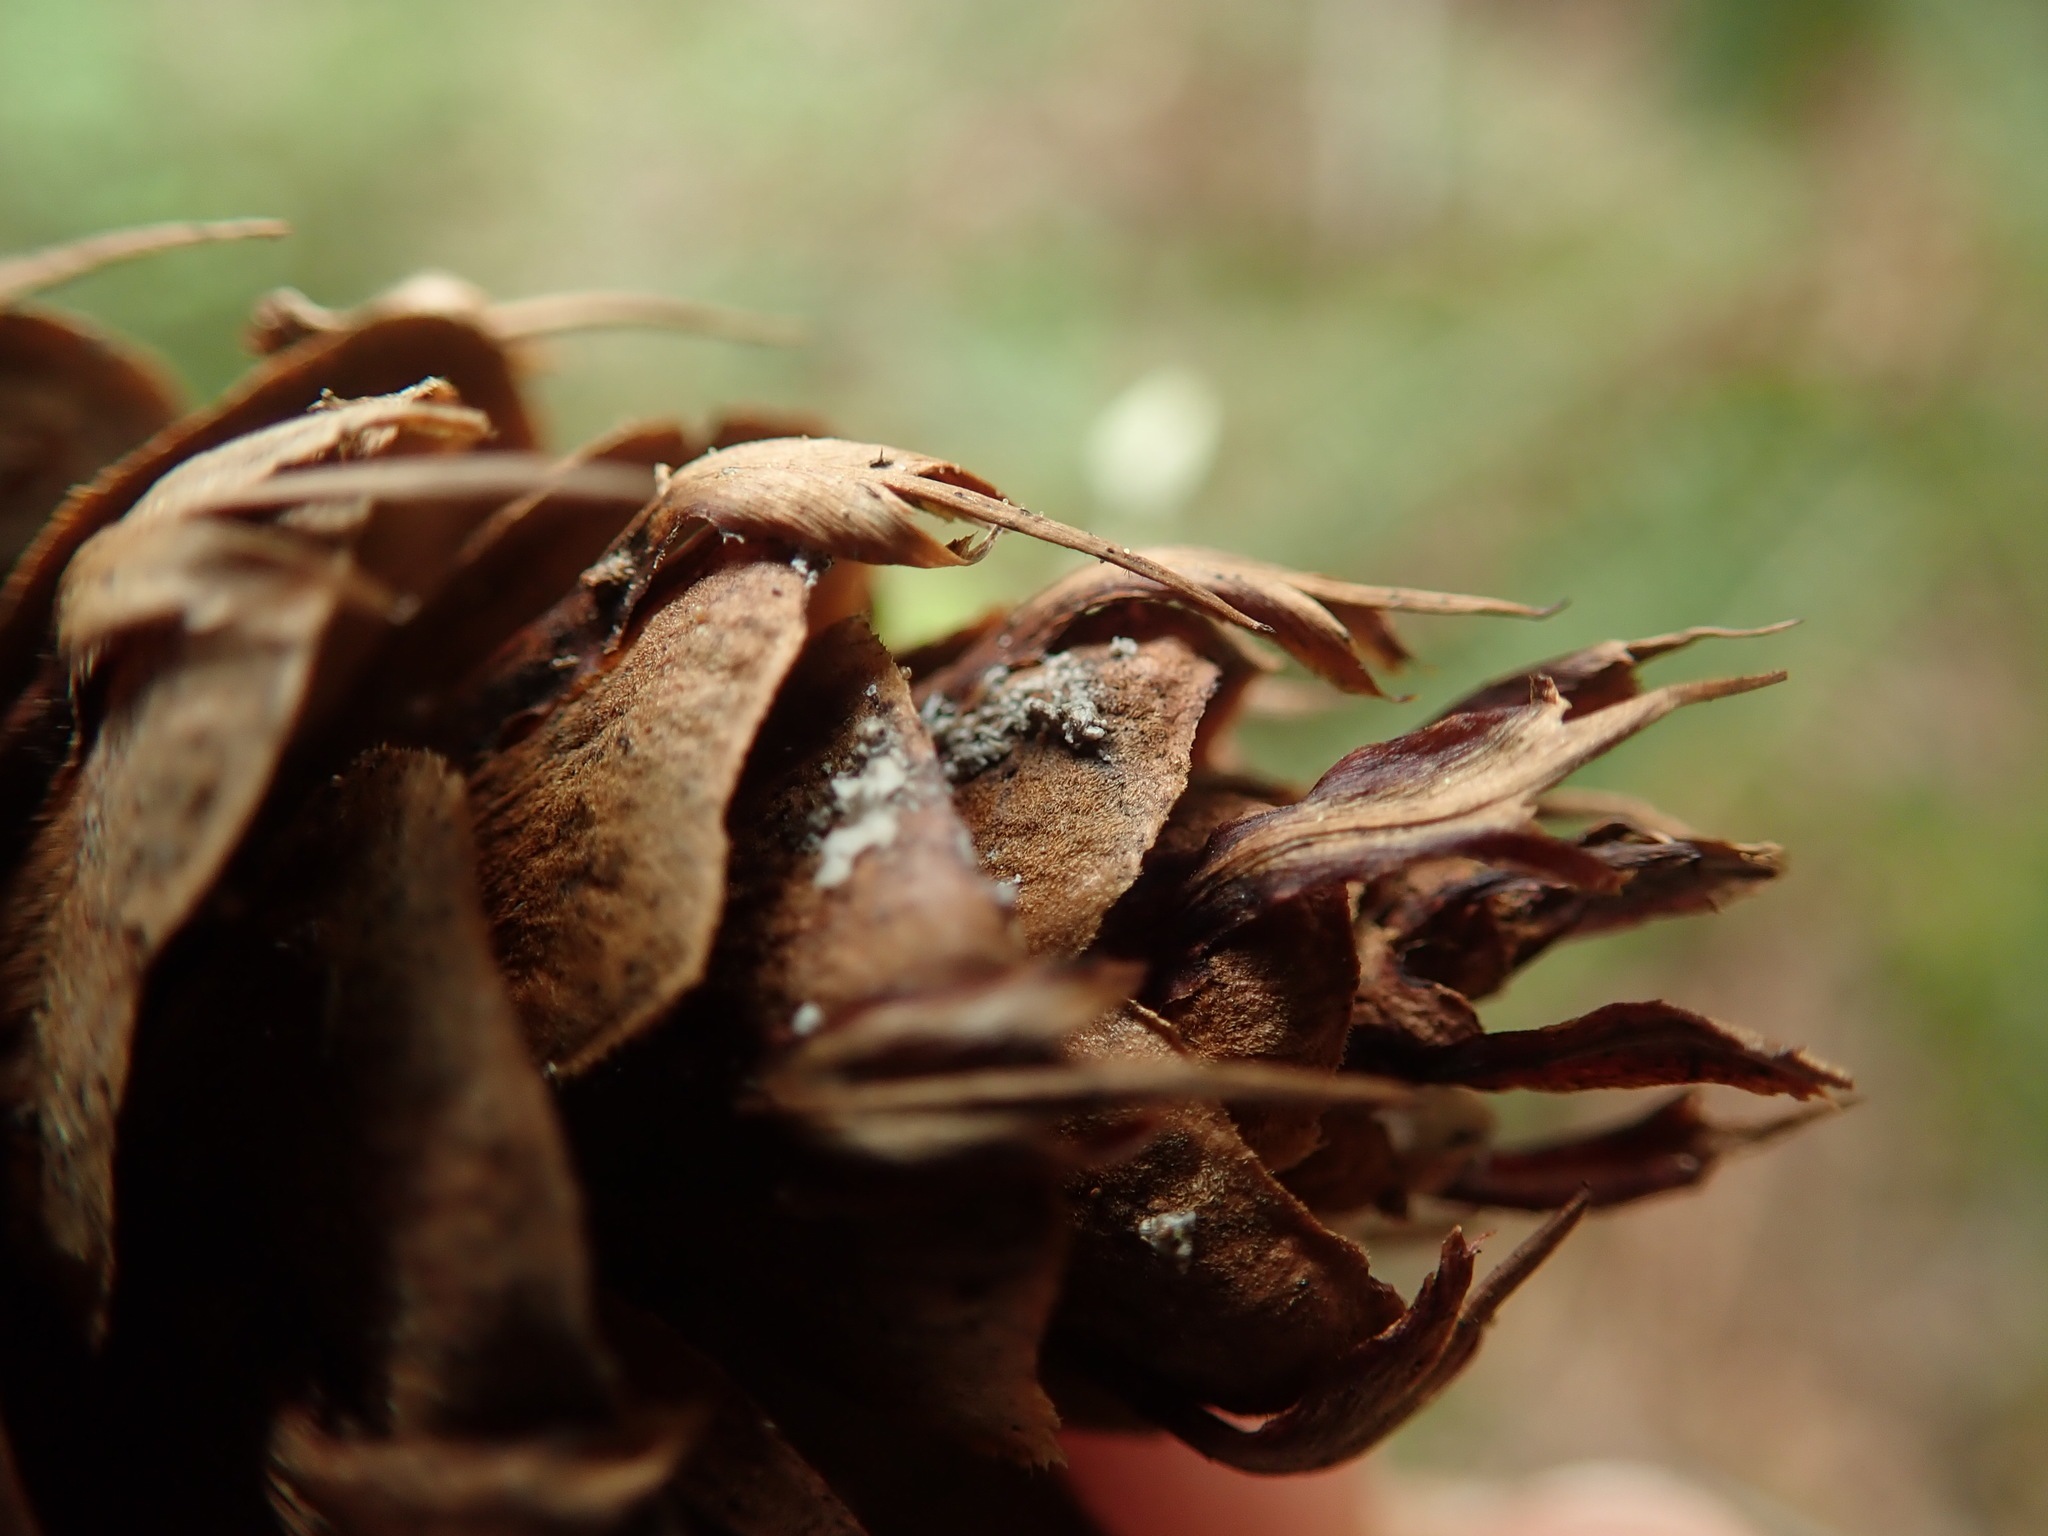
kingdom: Plantae
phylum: Tracheophyta
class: Pinopsida
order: Pinales
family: Pinaceae
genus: Pseudotsuga
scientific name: Pseudotsuga menziesii
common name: Douglas fir
